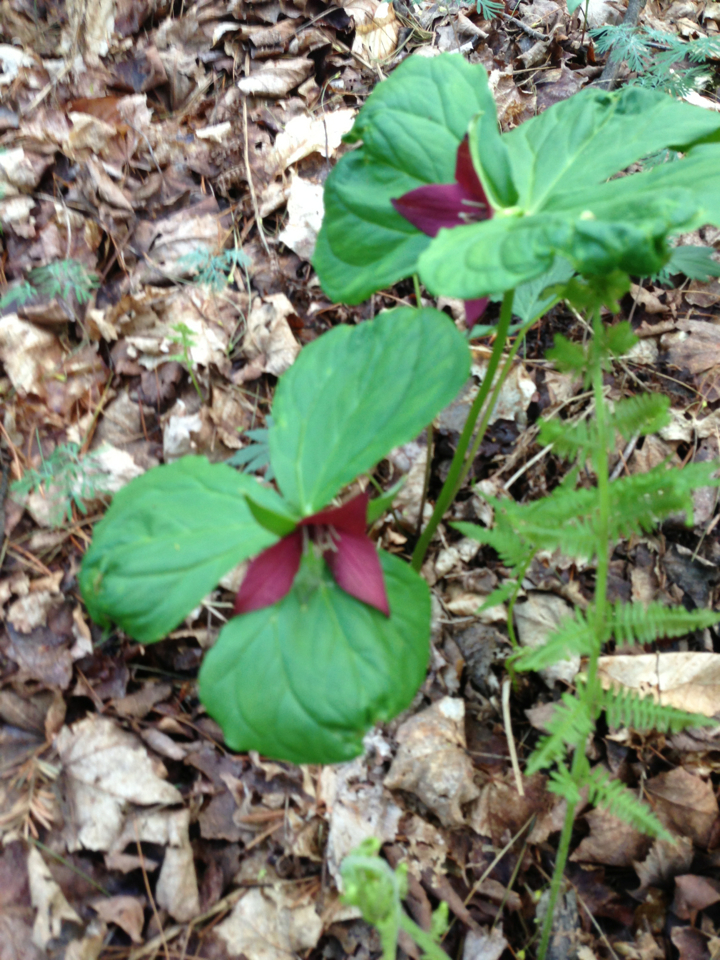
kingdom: Plantae
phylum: Tracheophyta
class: Liliopsida
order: Liliales
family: Melanthiaceae
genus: Trillium
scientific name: Trillium erectum
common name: Purple trillium
